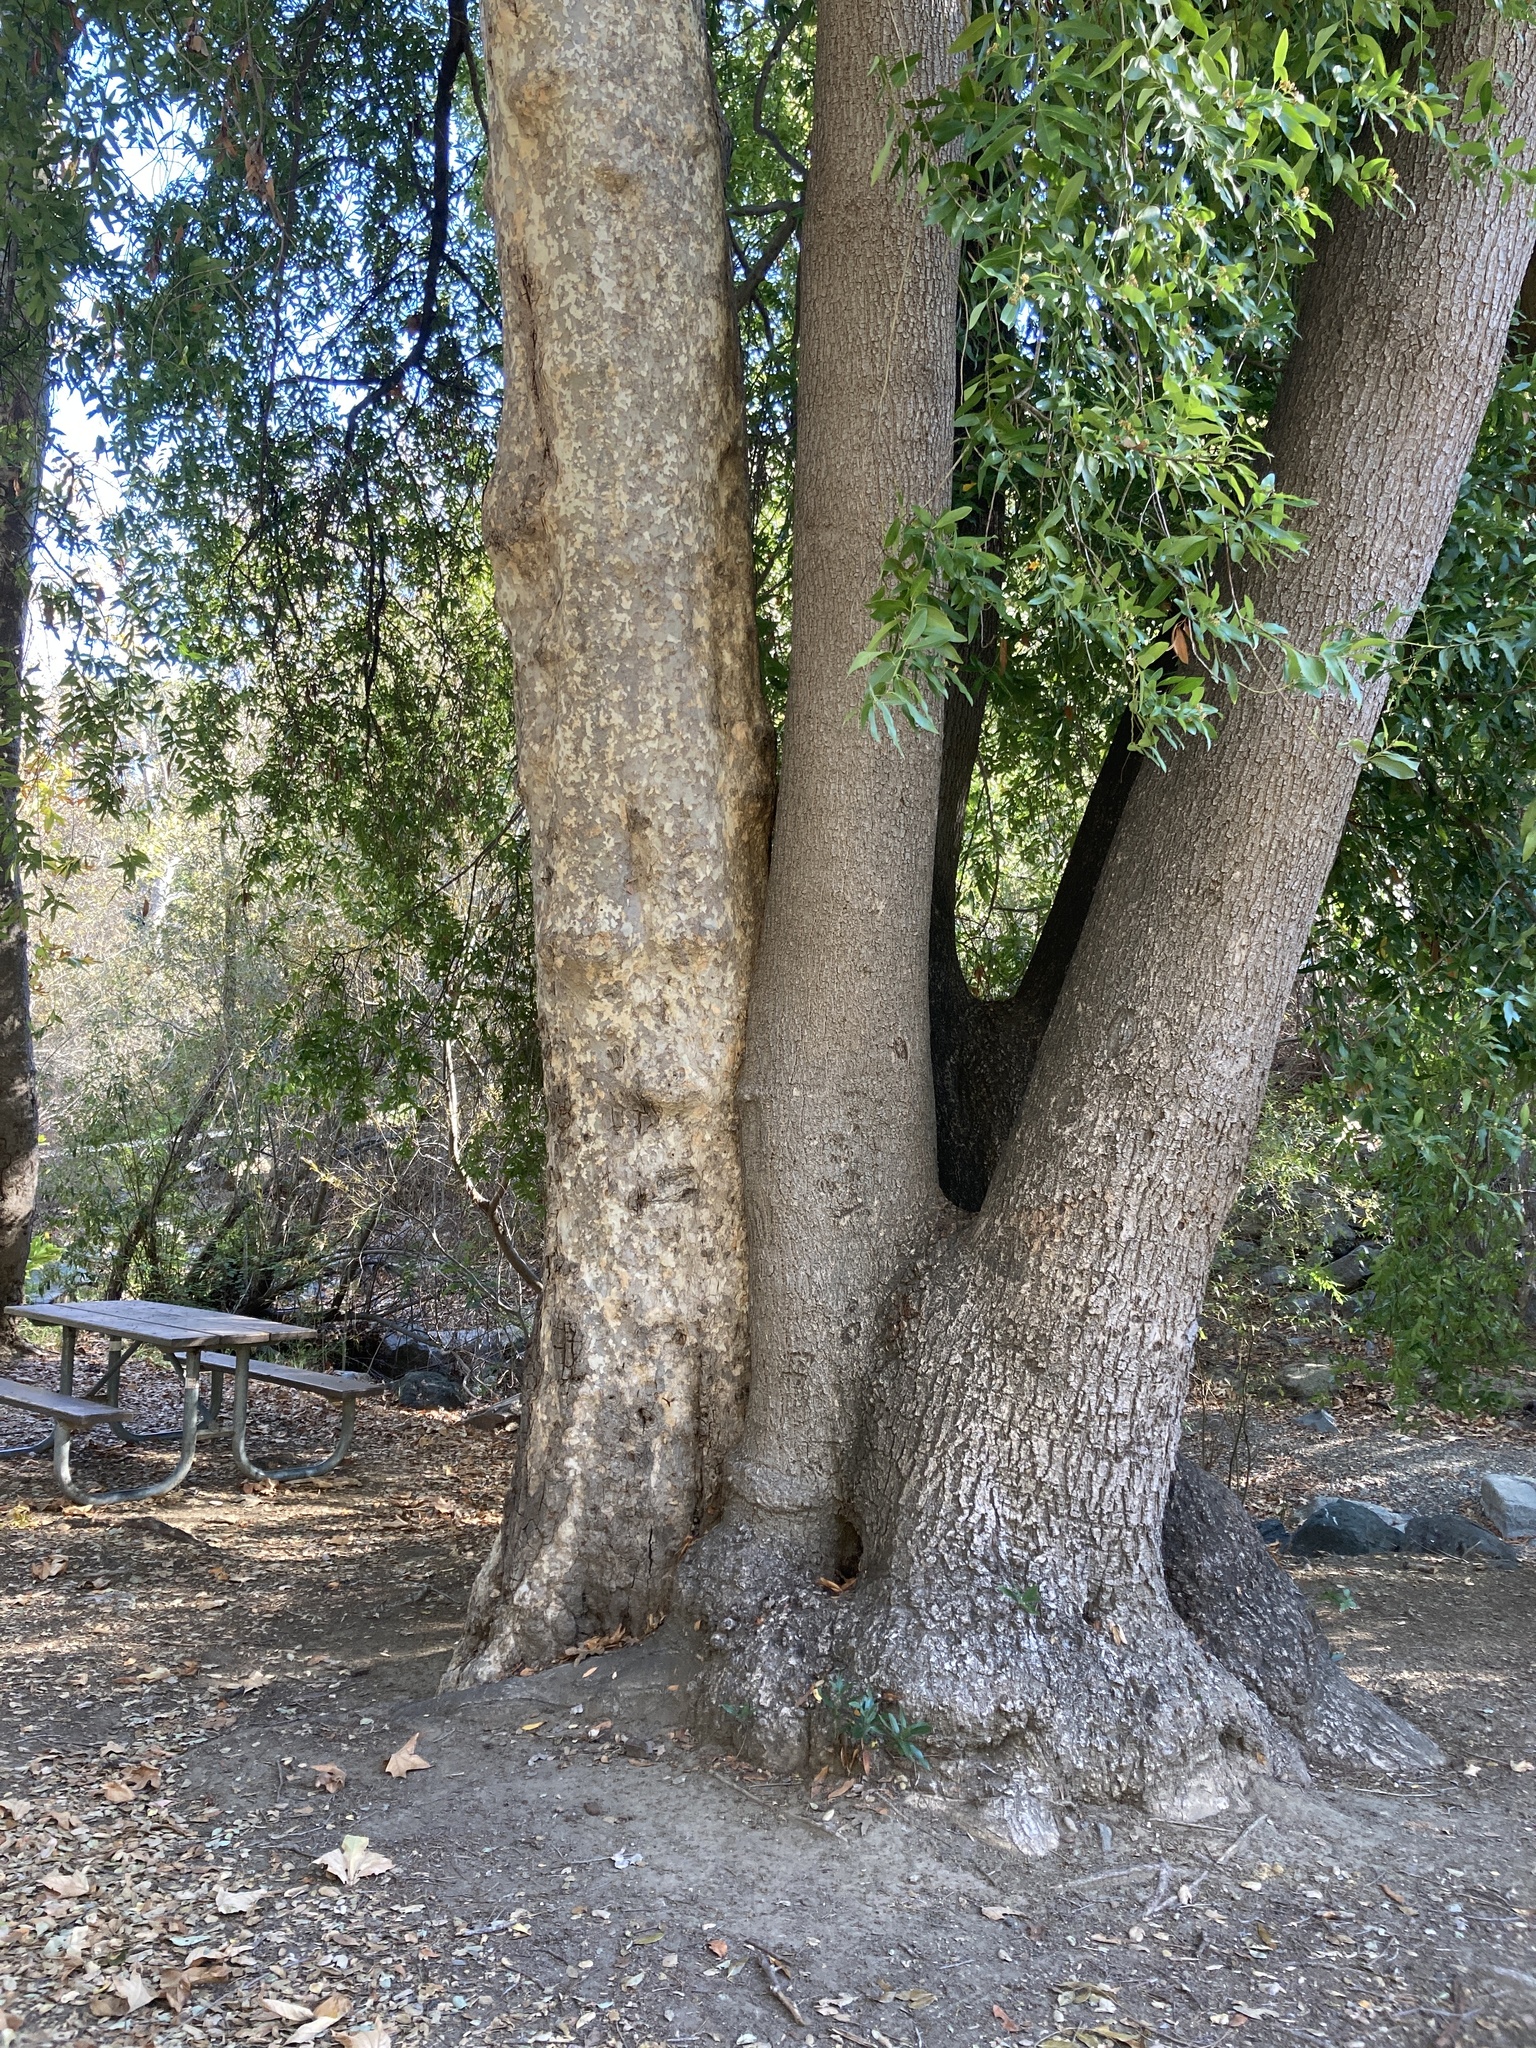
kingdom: Plantae
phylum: Tracheophyta
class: Magnoliopsida
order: Laurales
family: Lauraceae
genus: Umbellularia
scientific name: Umbellularia californica
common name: California bay
